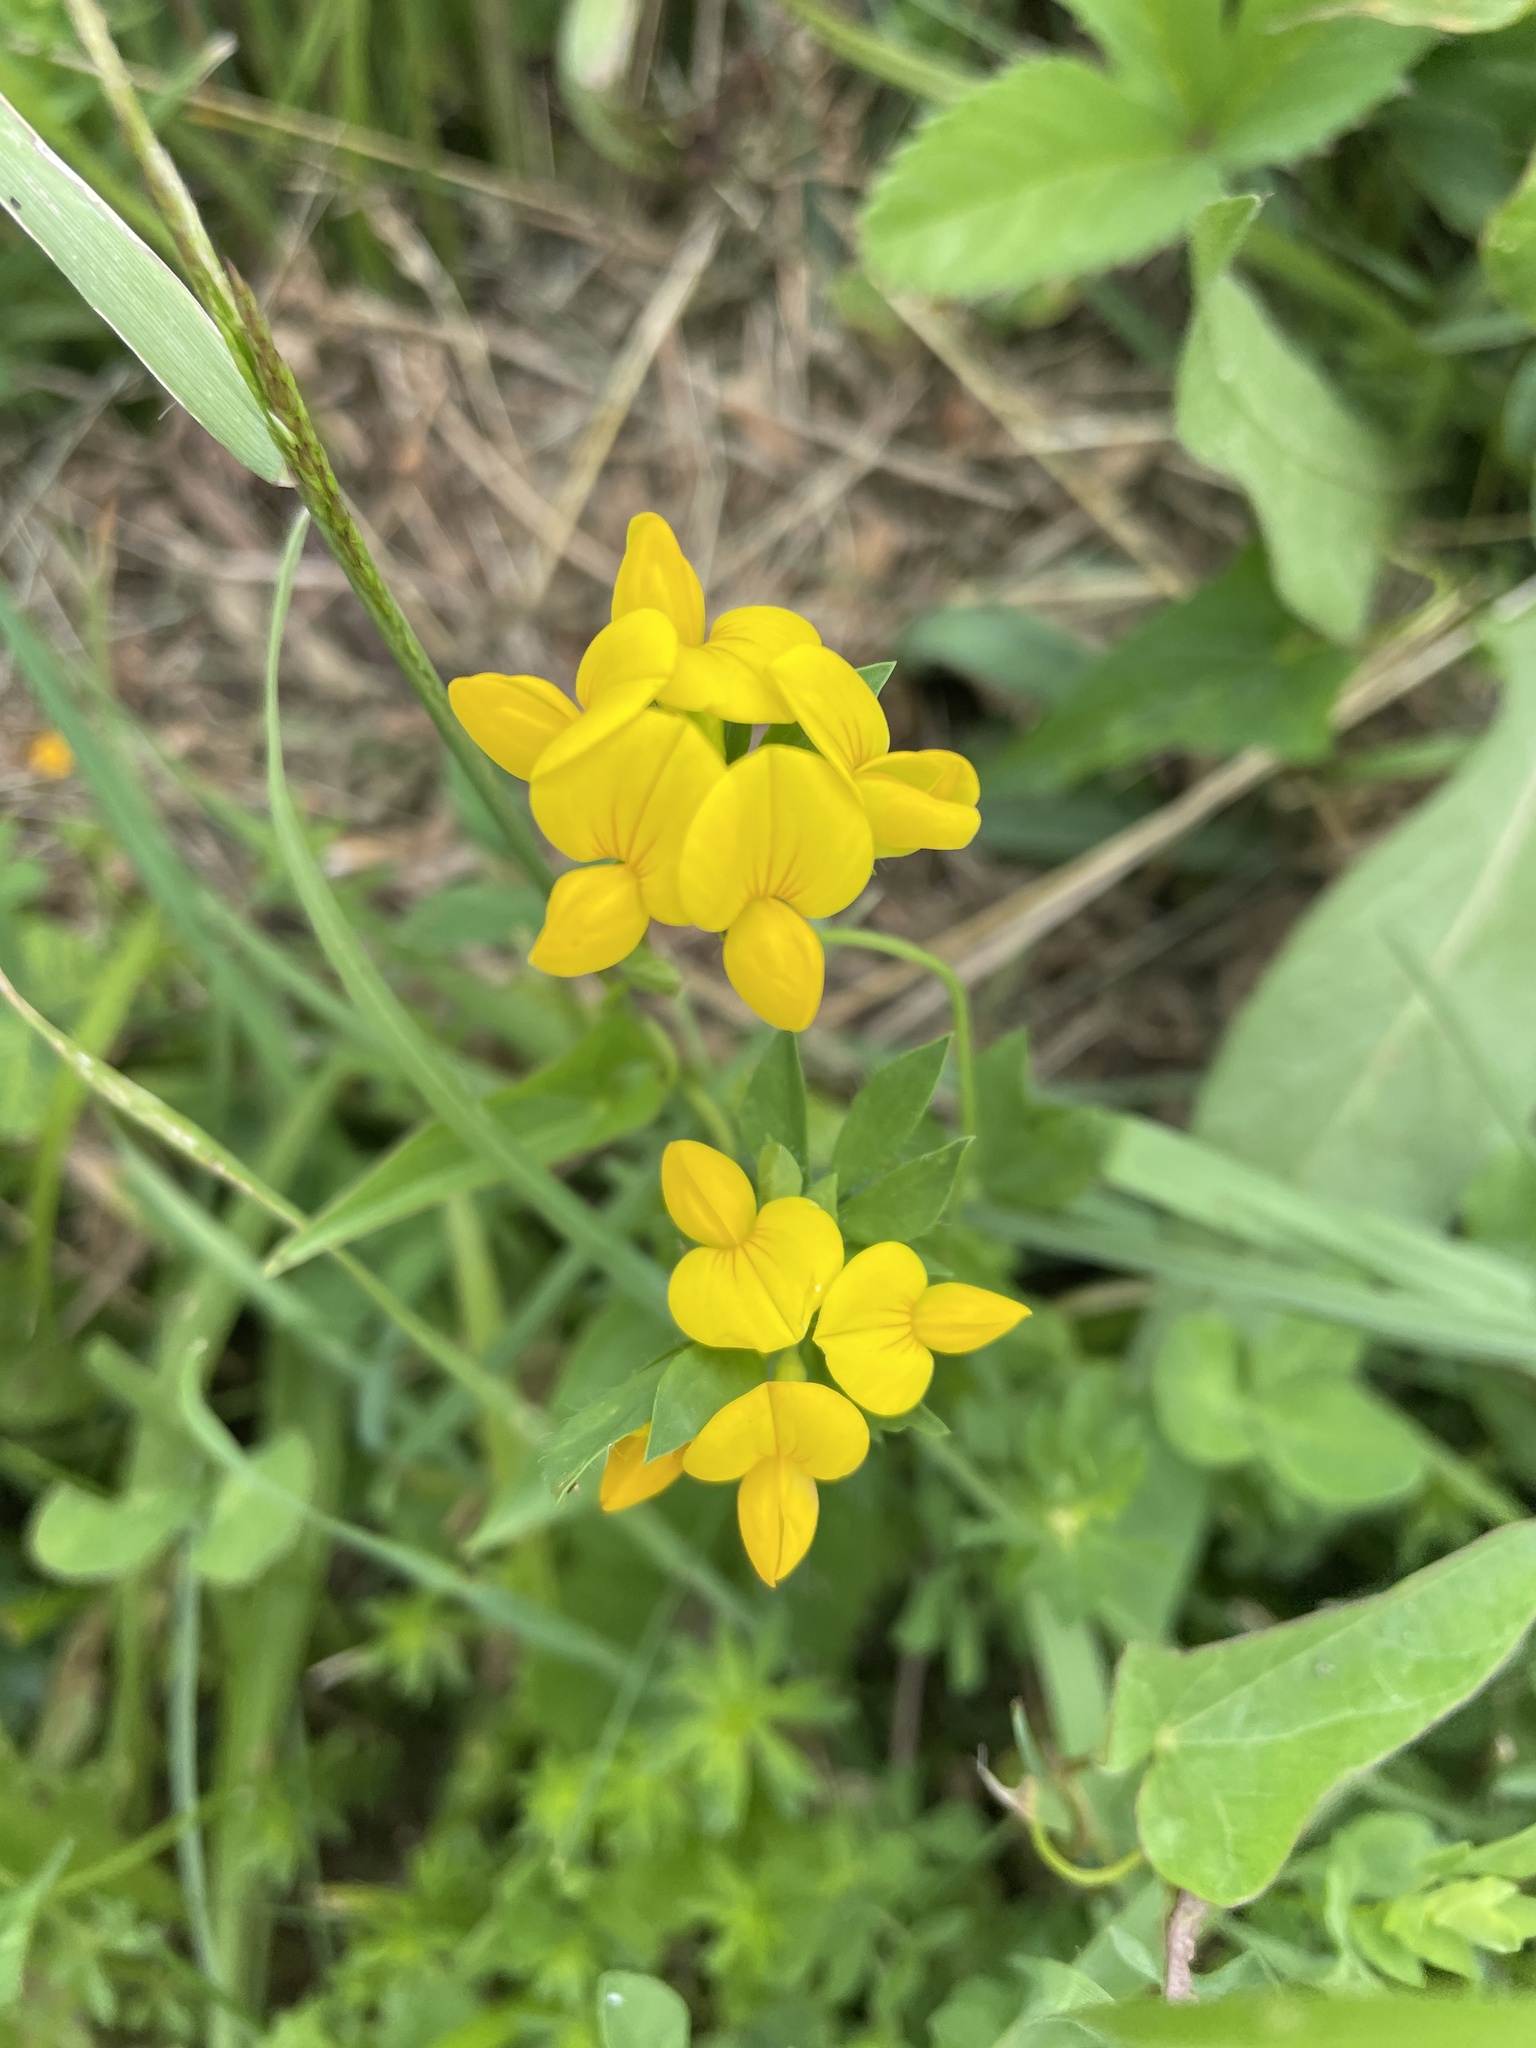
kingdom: Plantae
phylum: Tracheophyta
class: Magnoliopsida
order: Fabales
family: Fabaceae
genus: Lotus
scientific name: Lotus corniculatus
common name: Common bird's-foot-trefoil
